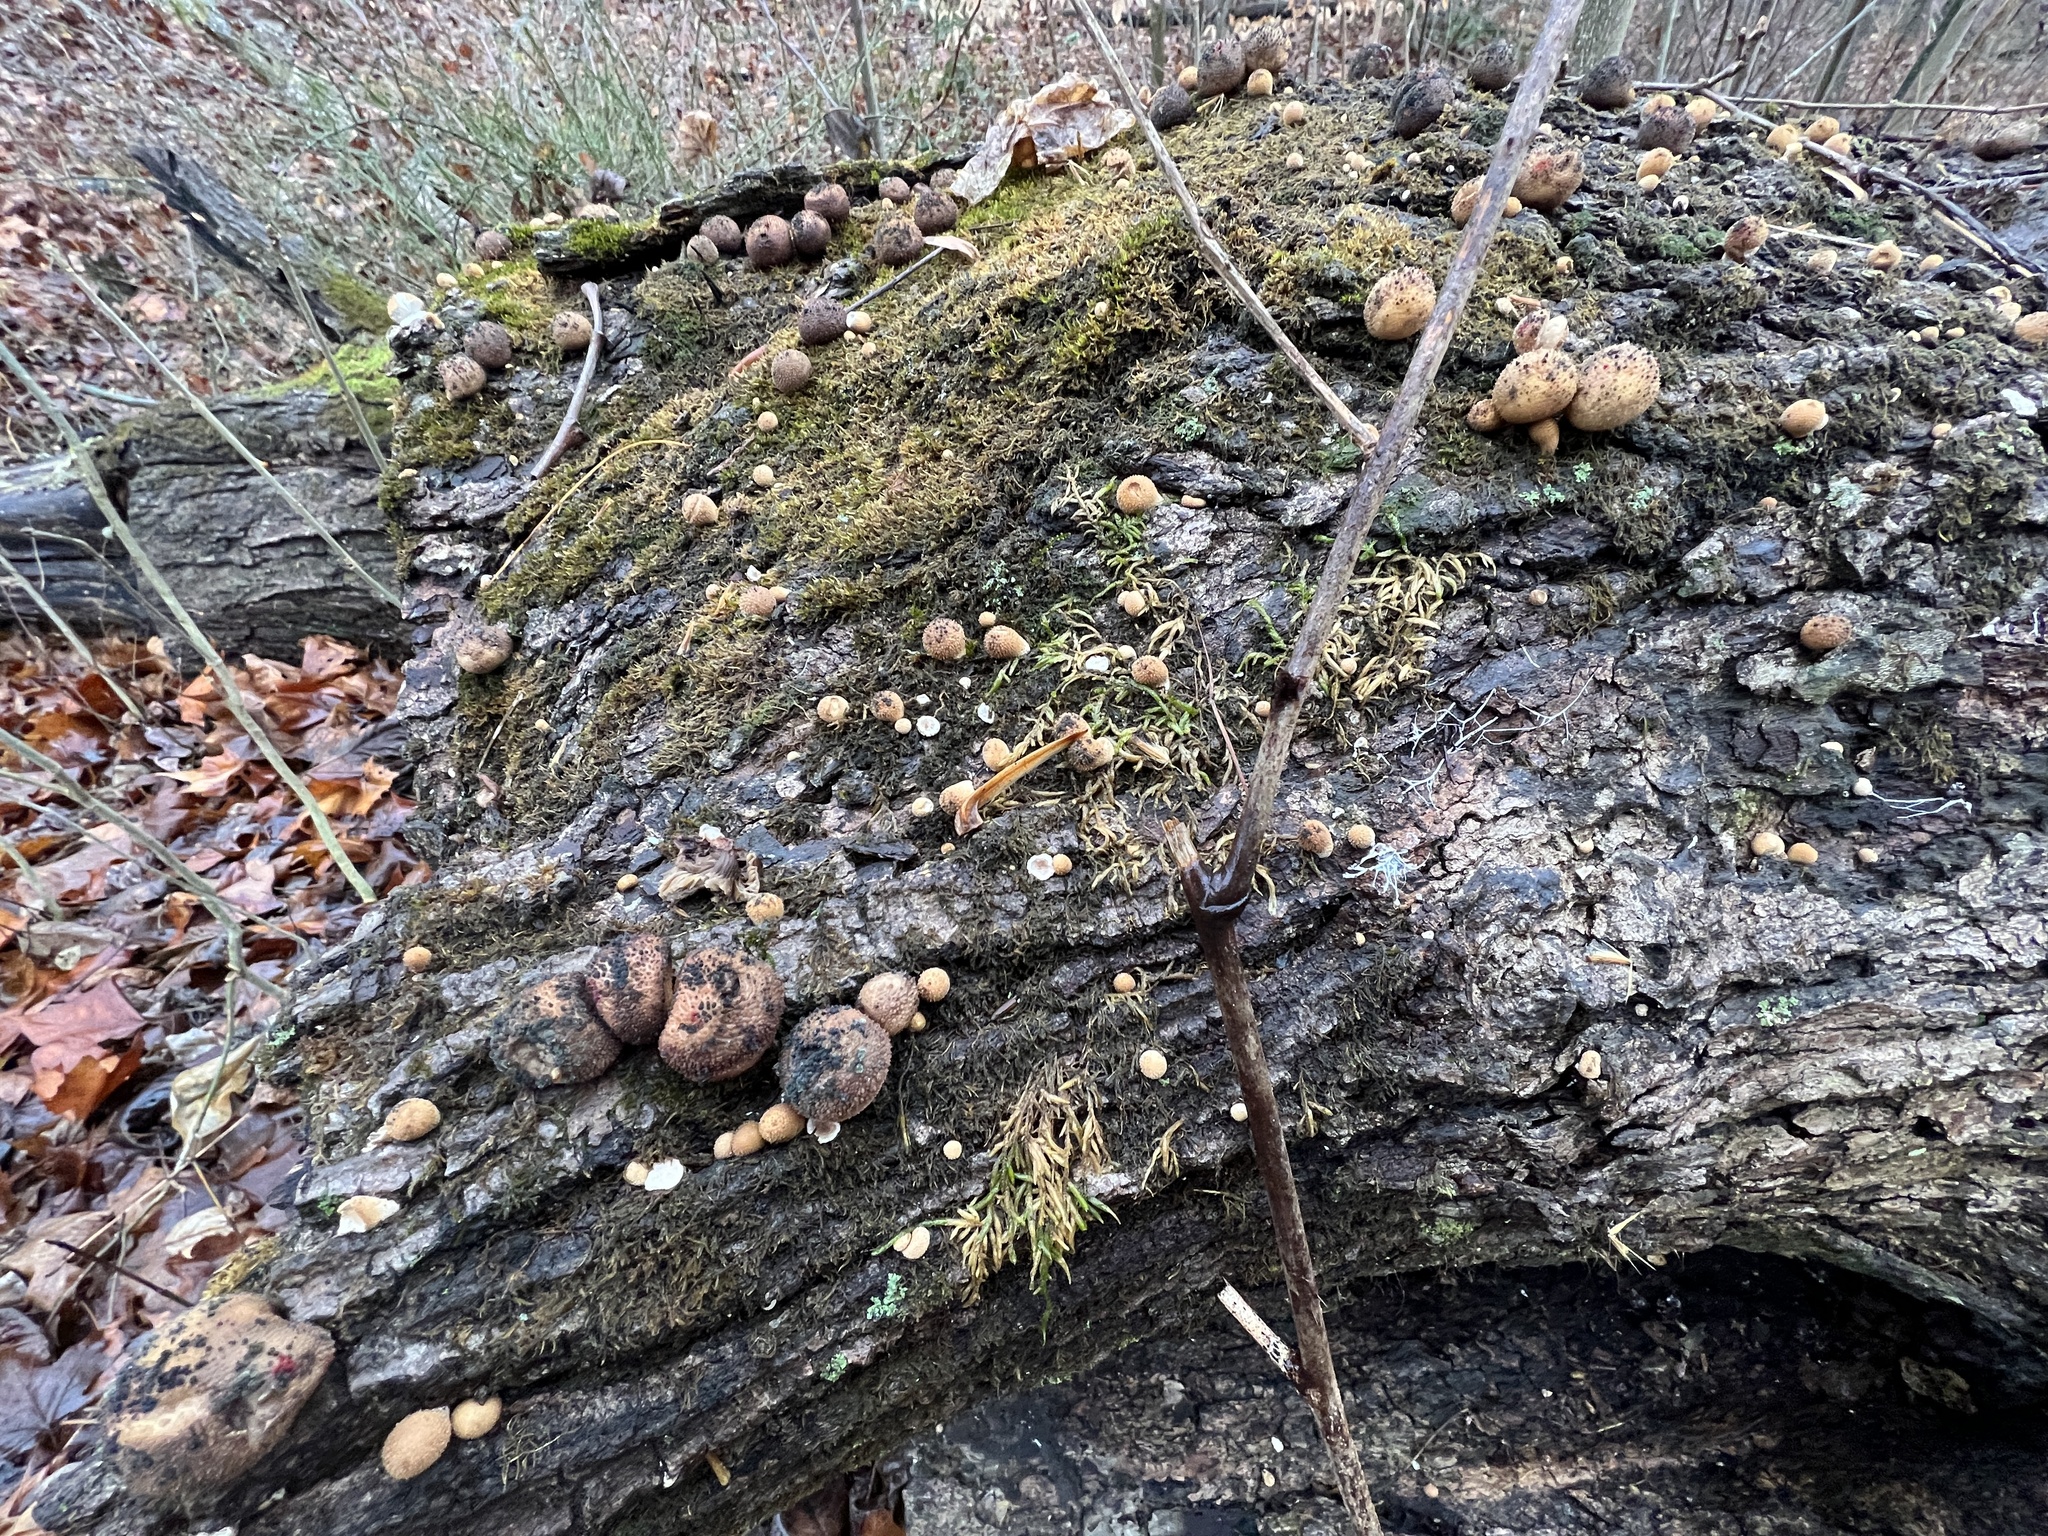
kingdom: Fungi
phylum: Basidiomycota
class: Agaricomycetes
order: Agaricales
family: Lycoperdaceae
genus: Apioperdon
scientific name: Apioperdon pyriforme
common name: Pear-shaped puffball
